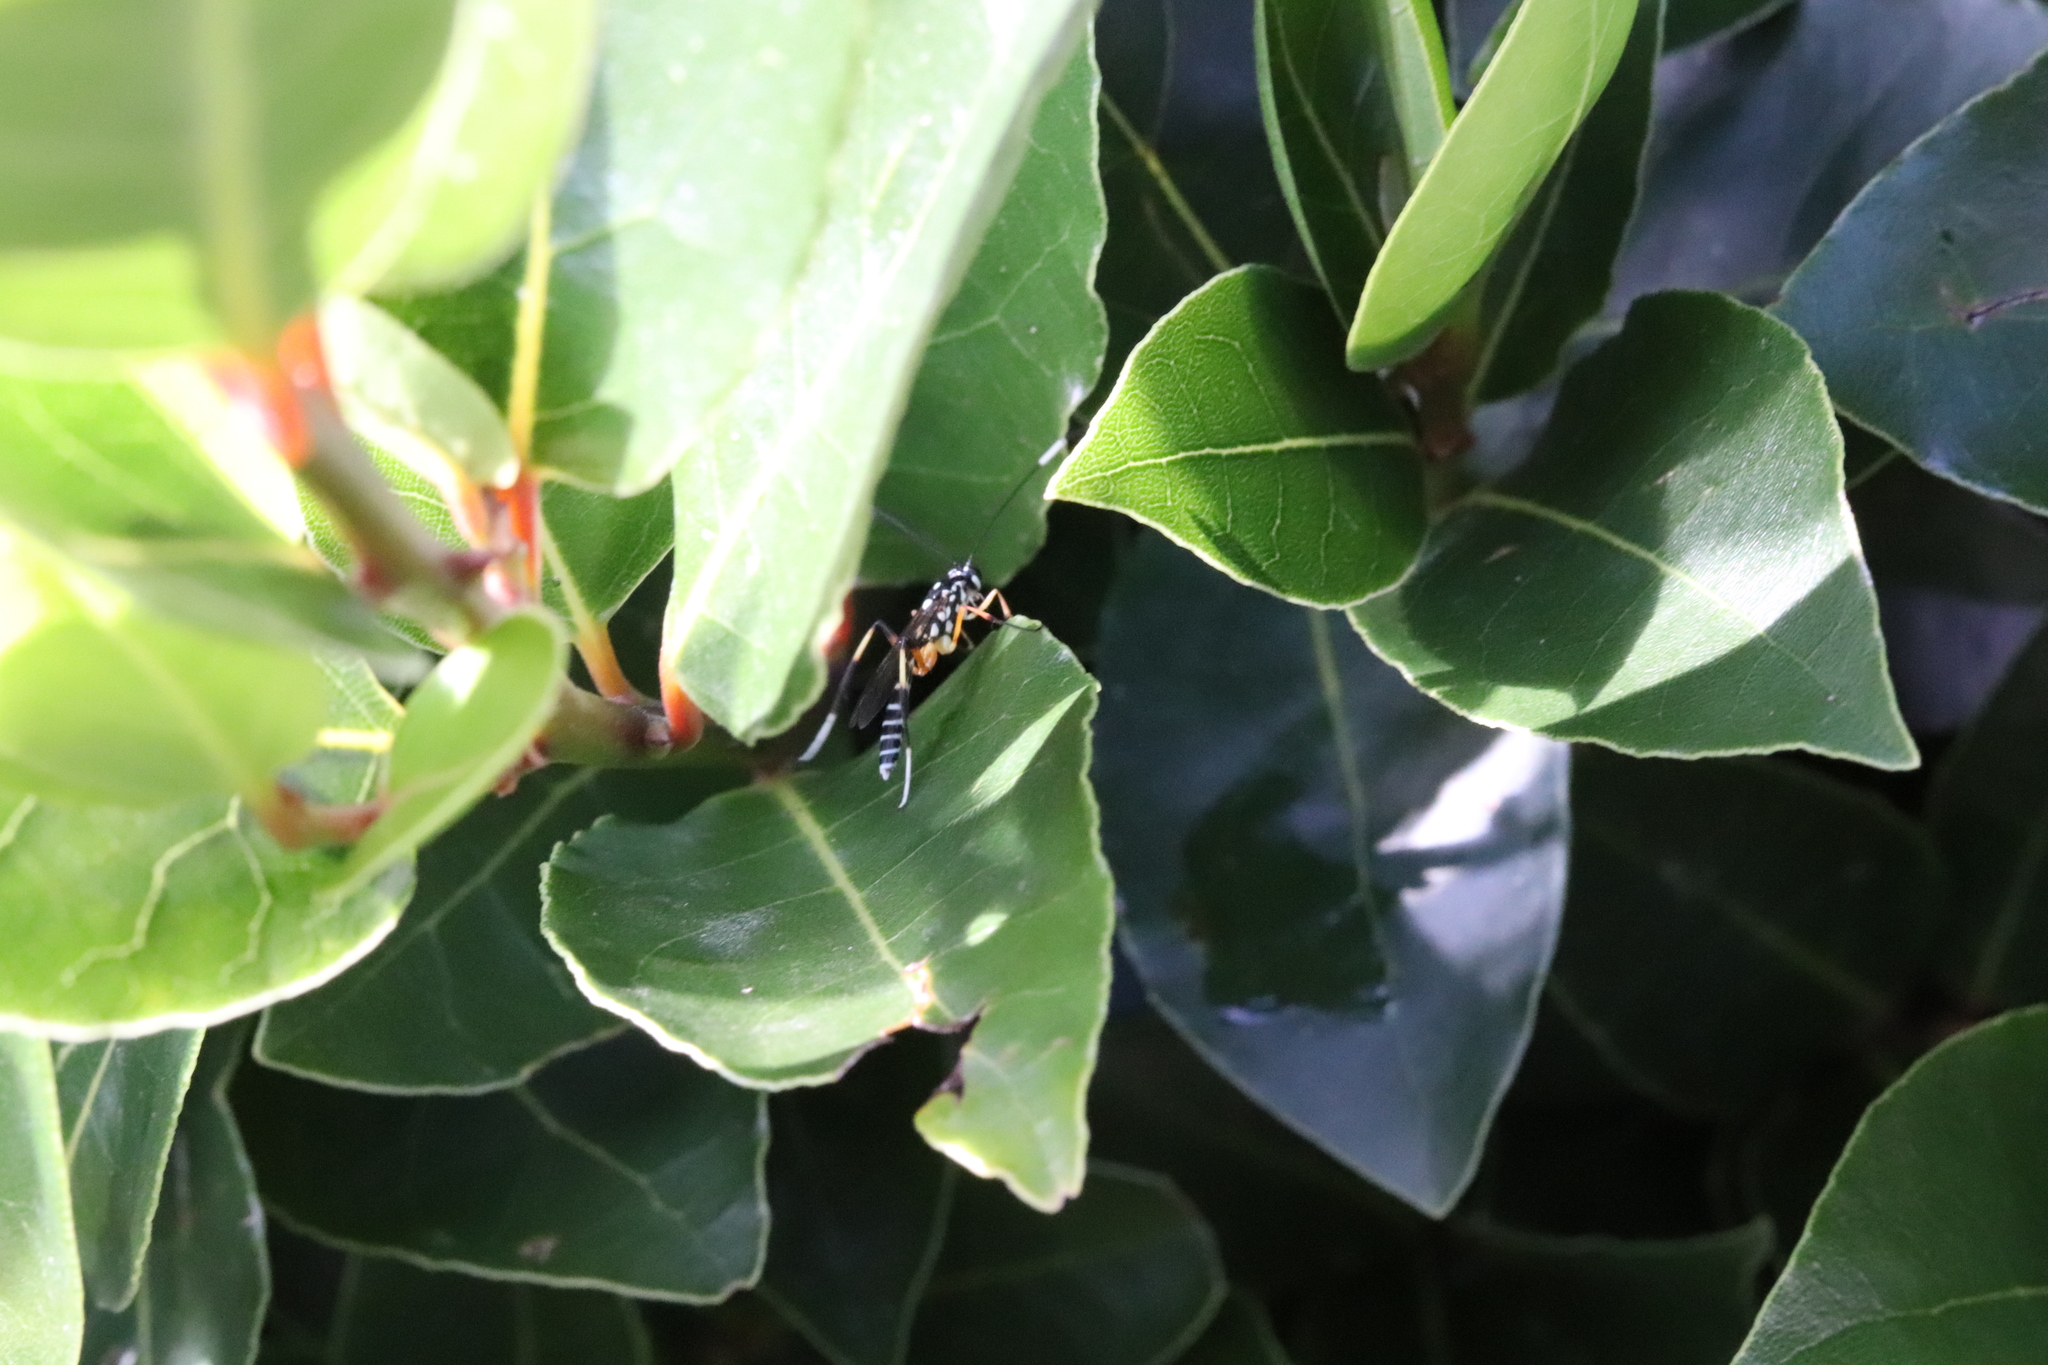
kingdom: Animalia
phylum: Arthropoda
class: Insecta
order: Hymenoptera
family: Ichneumonidae
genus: Xanthocryptus
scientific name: Xanthocryptus novozealandicus
